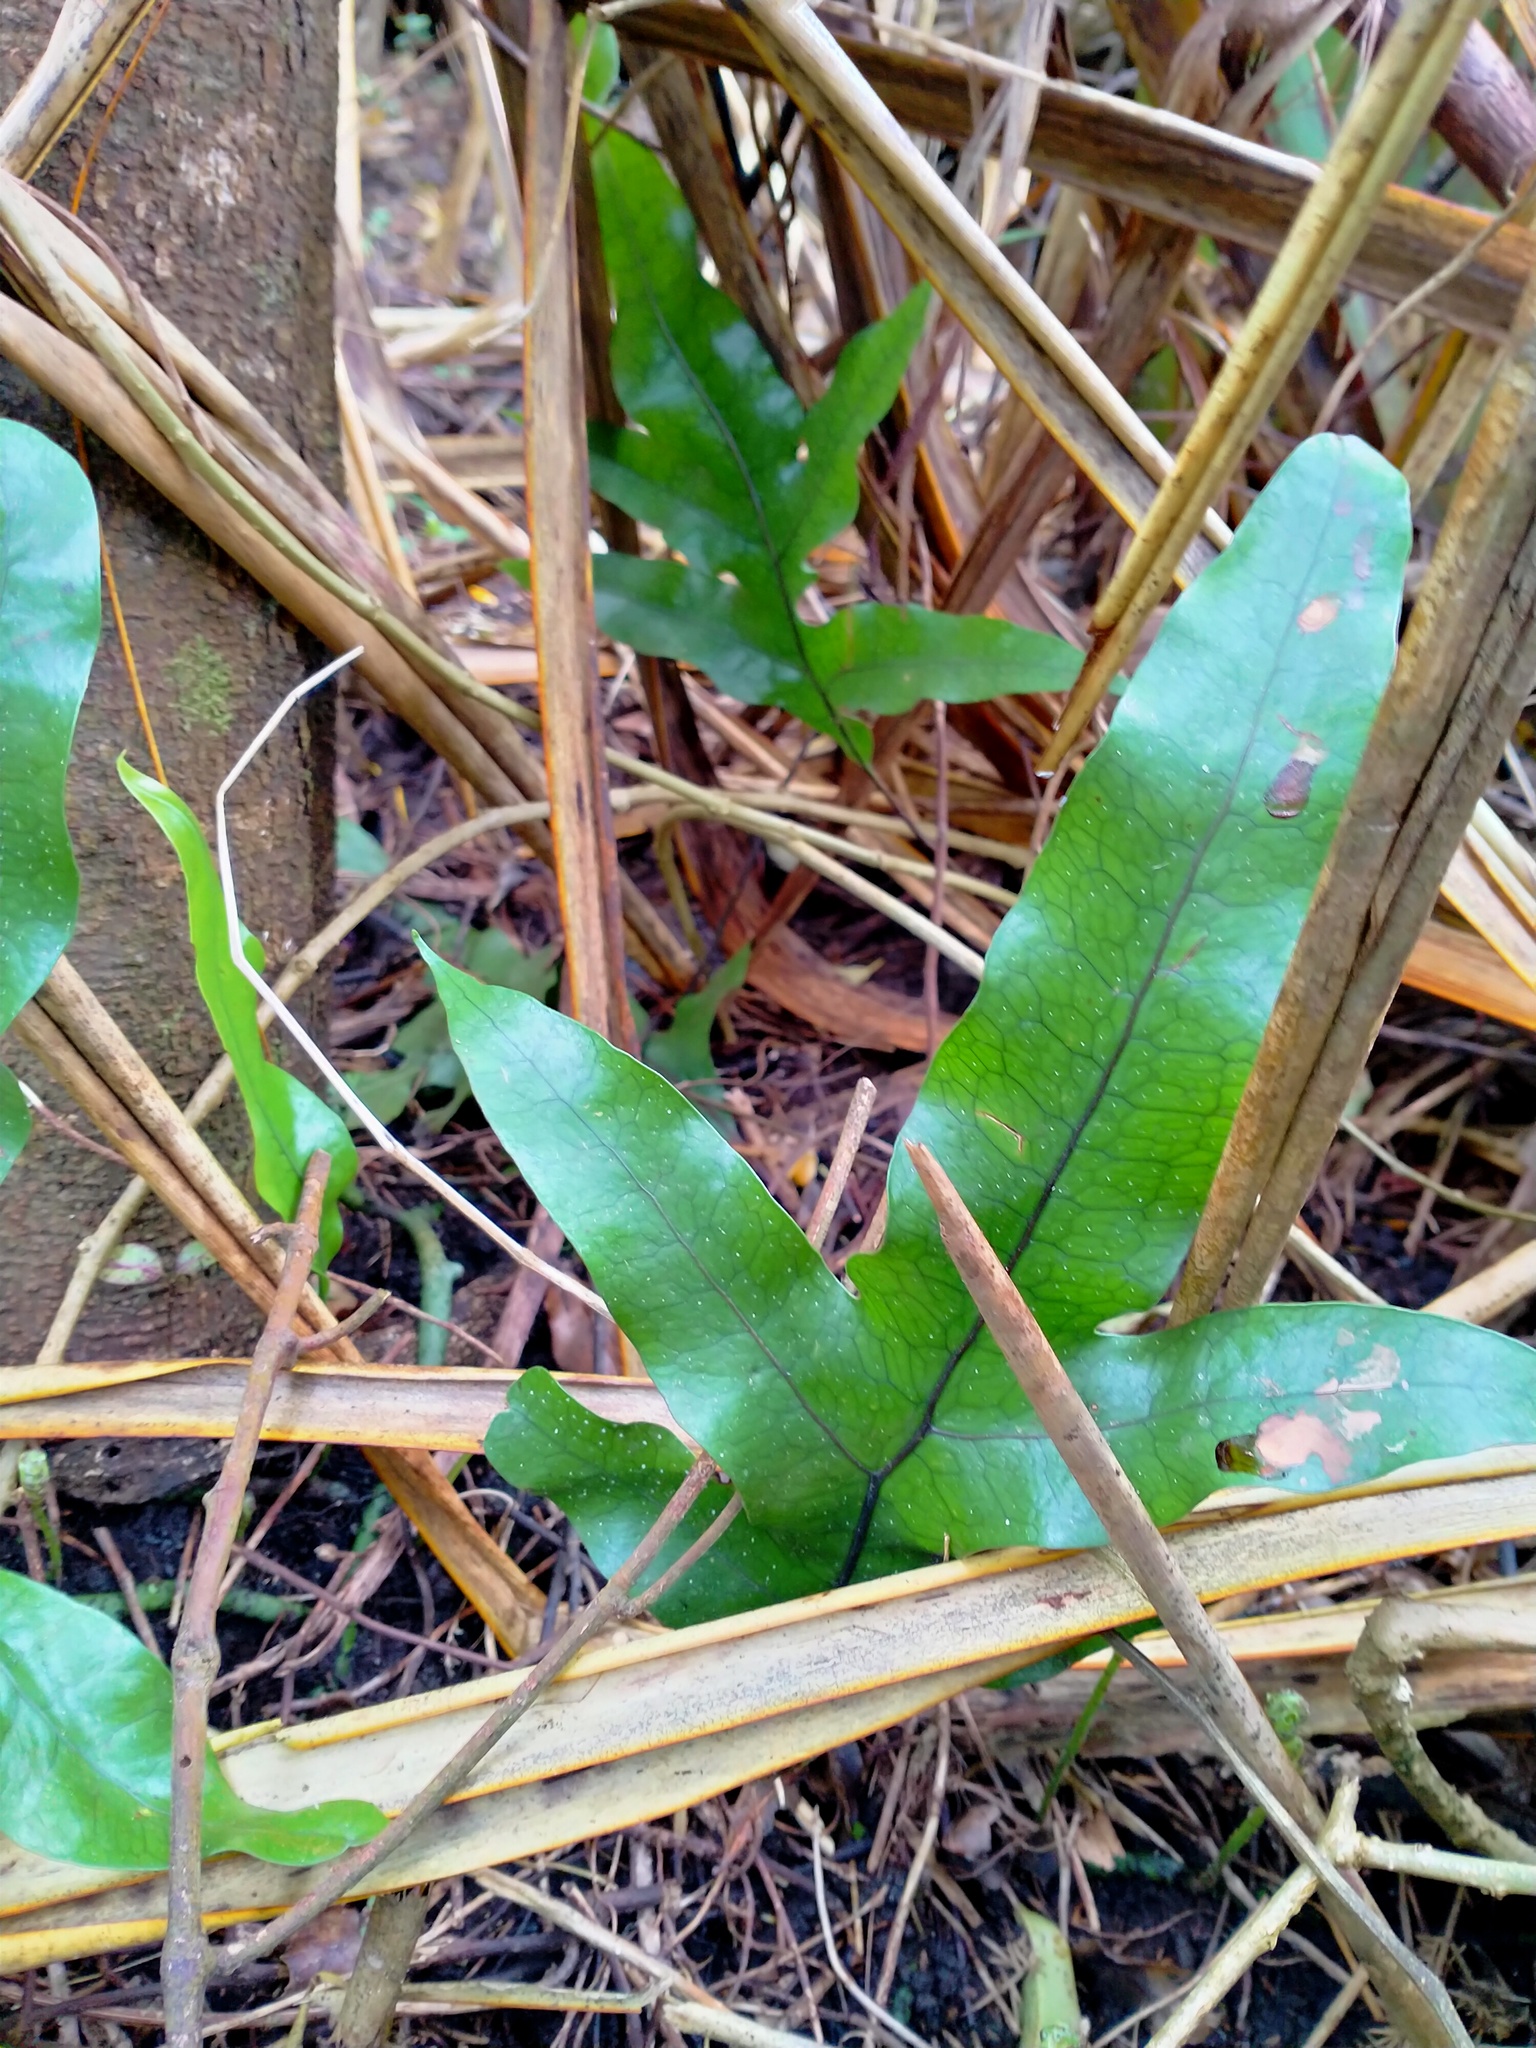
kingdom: Plantae
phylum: Tracheophyta
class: Polypodiopsida
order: Polypodiales
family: Polypodiaceae
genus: Lecanopteris
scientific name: Lecanopteris pustulata
